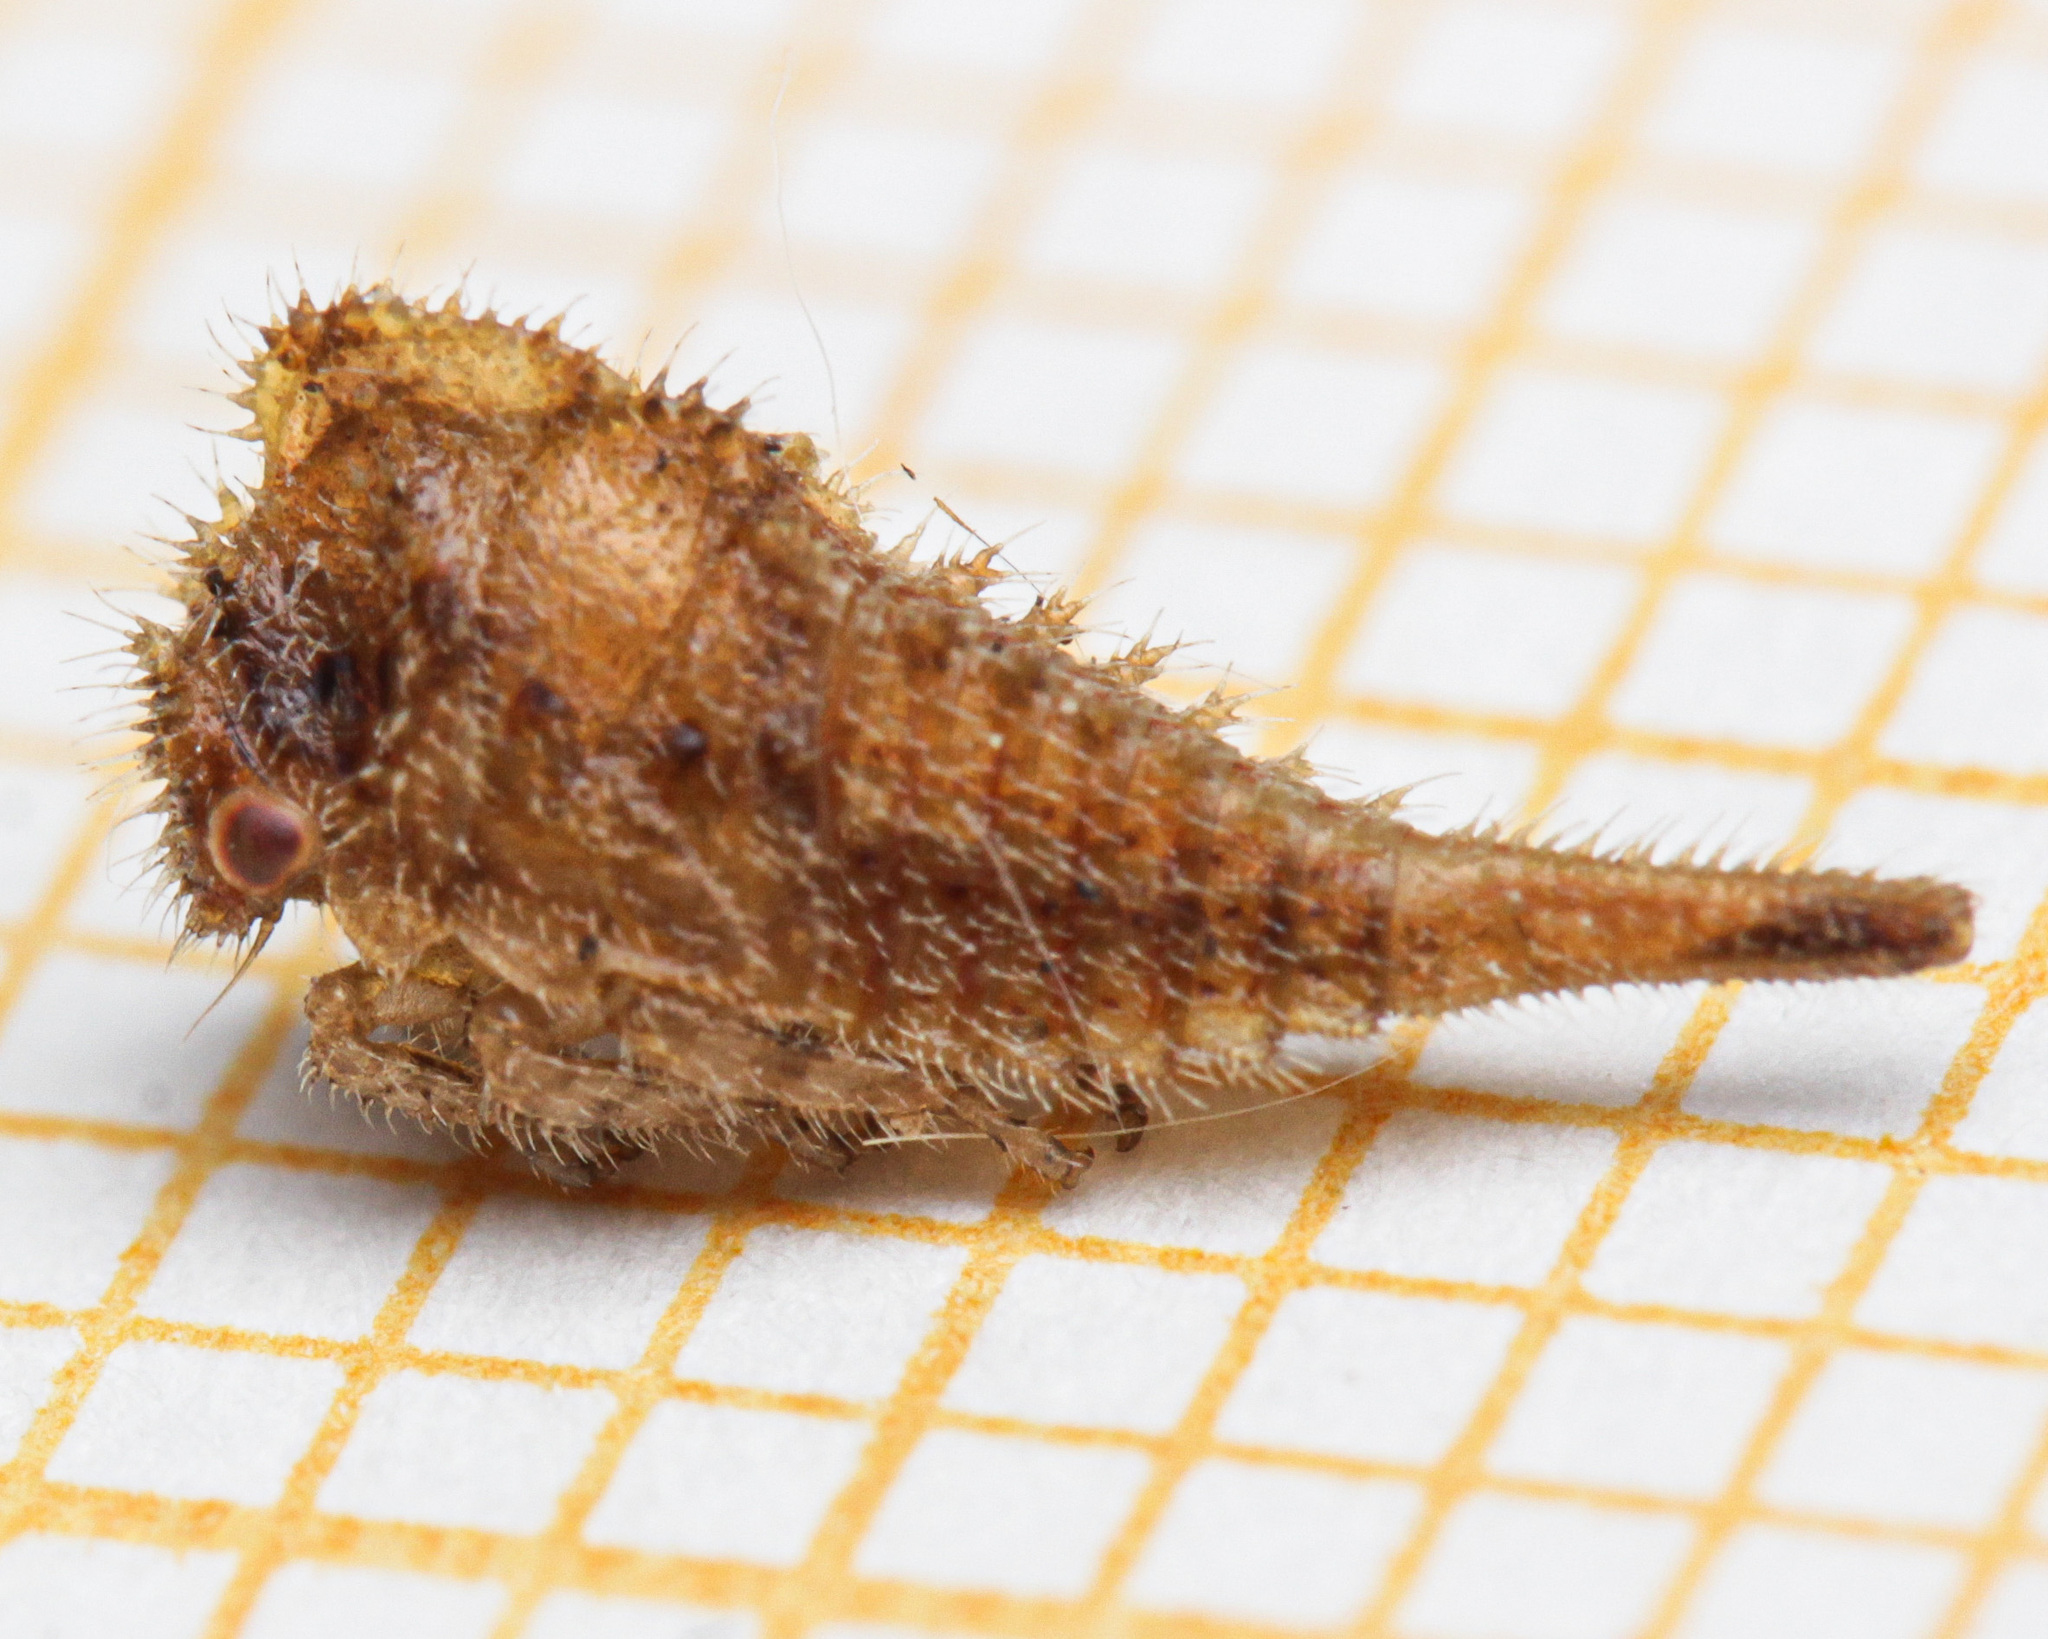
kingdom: Animalia
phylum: Arthropoda
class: Insecta
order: Hemiptera
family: Membracidae
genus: Centrotus
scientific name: Centrotus cornuta
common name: Treehopper
